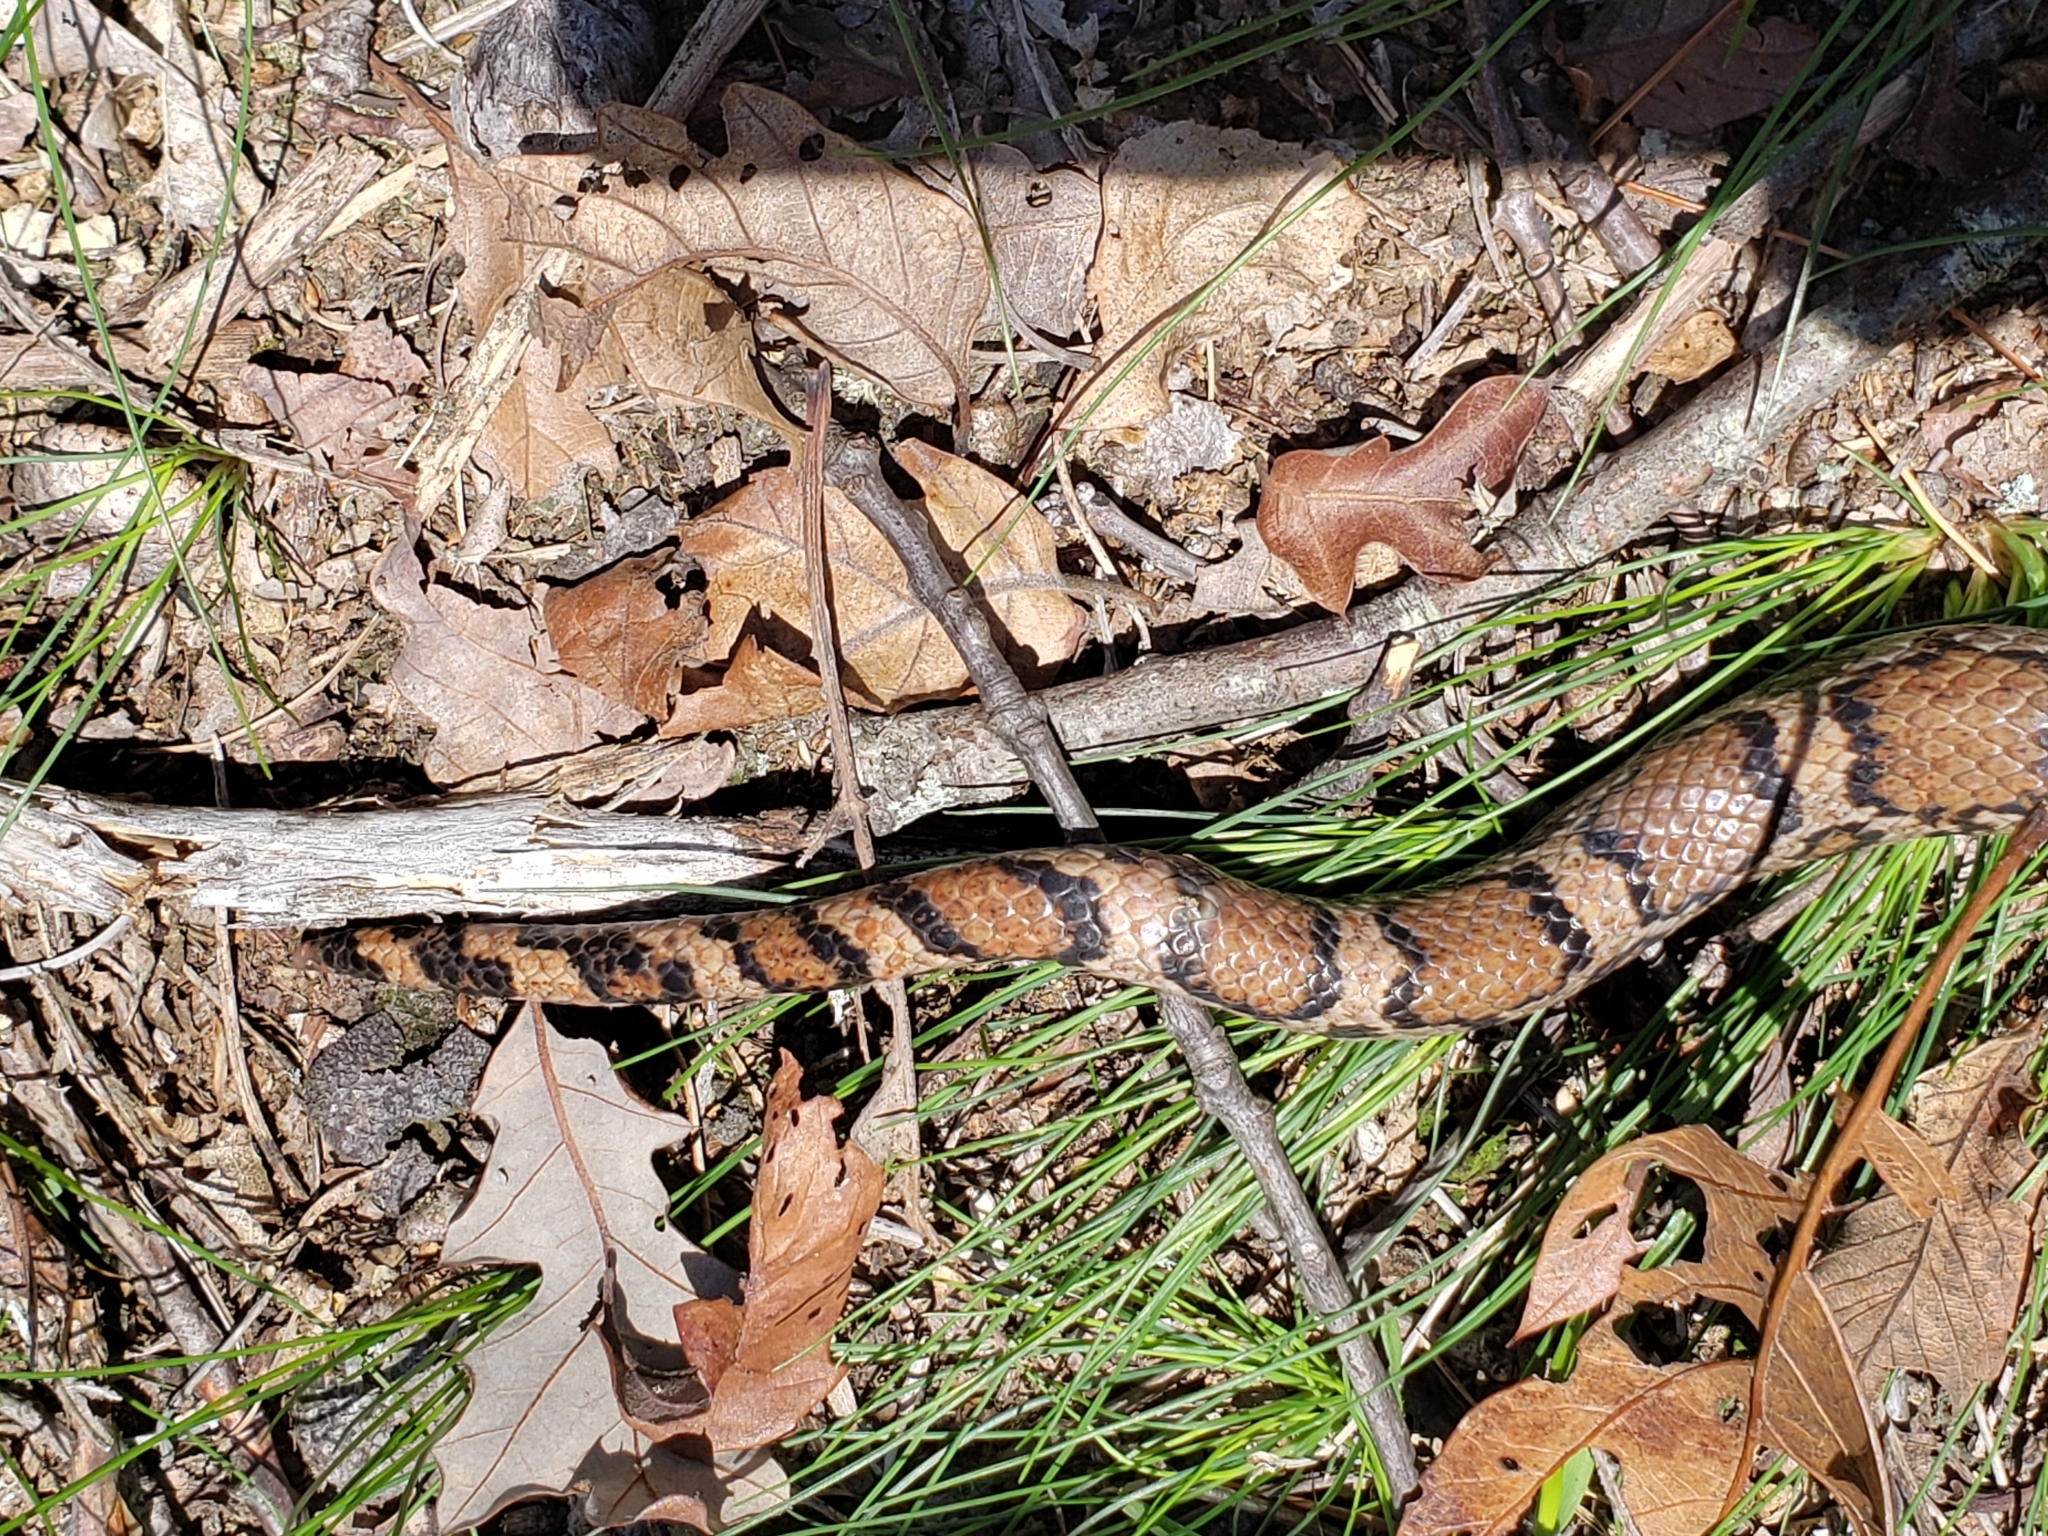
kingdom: Animalia
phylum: Chordata
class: Squamata
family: Colubridae
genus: Lampropeltis
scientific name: Lampropeltis triangulum
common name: Eastern milksnake
